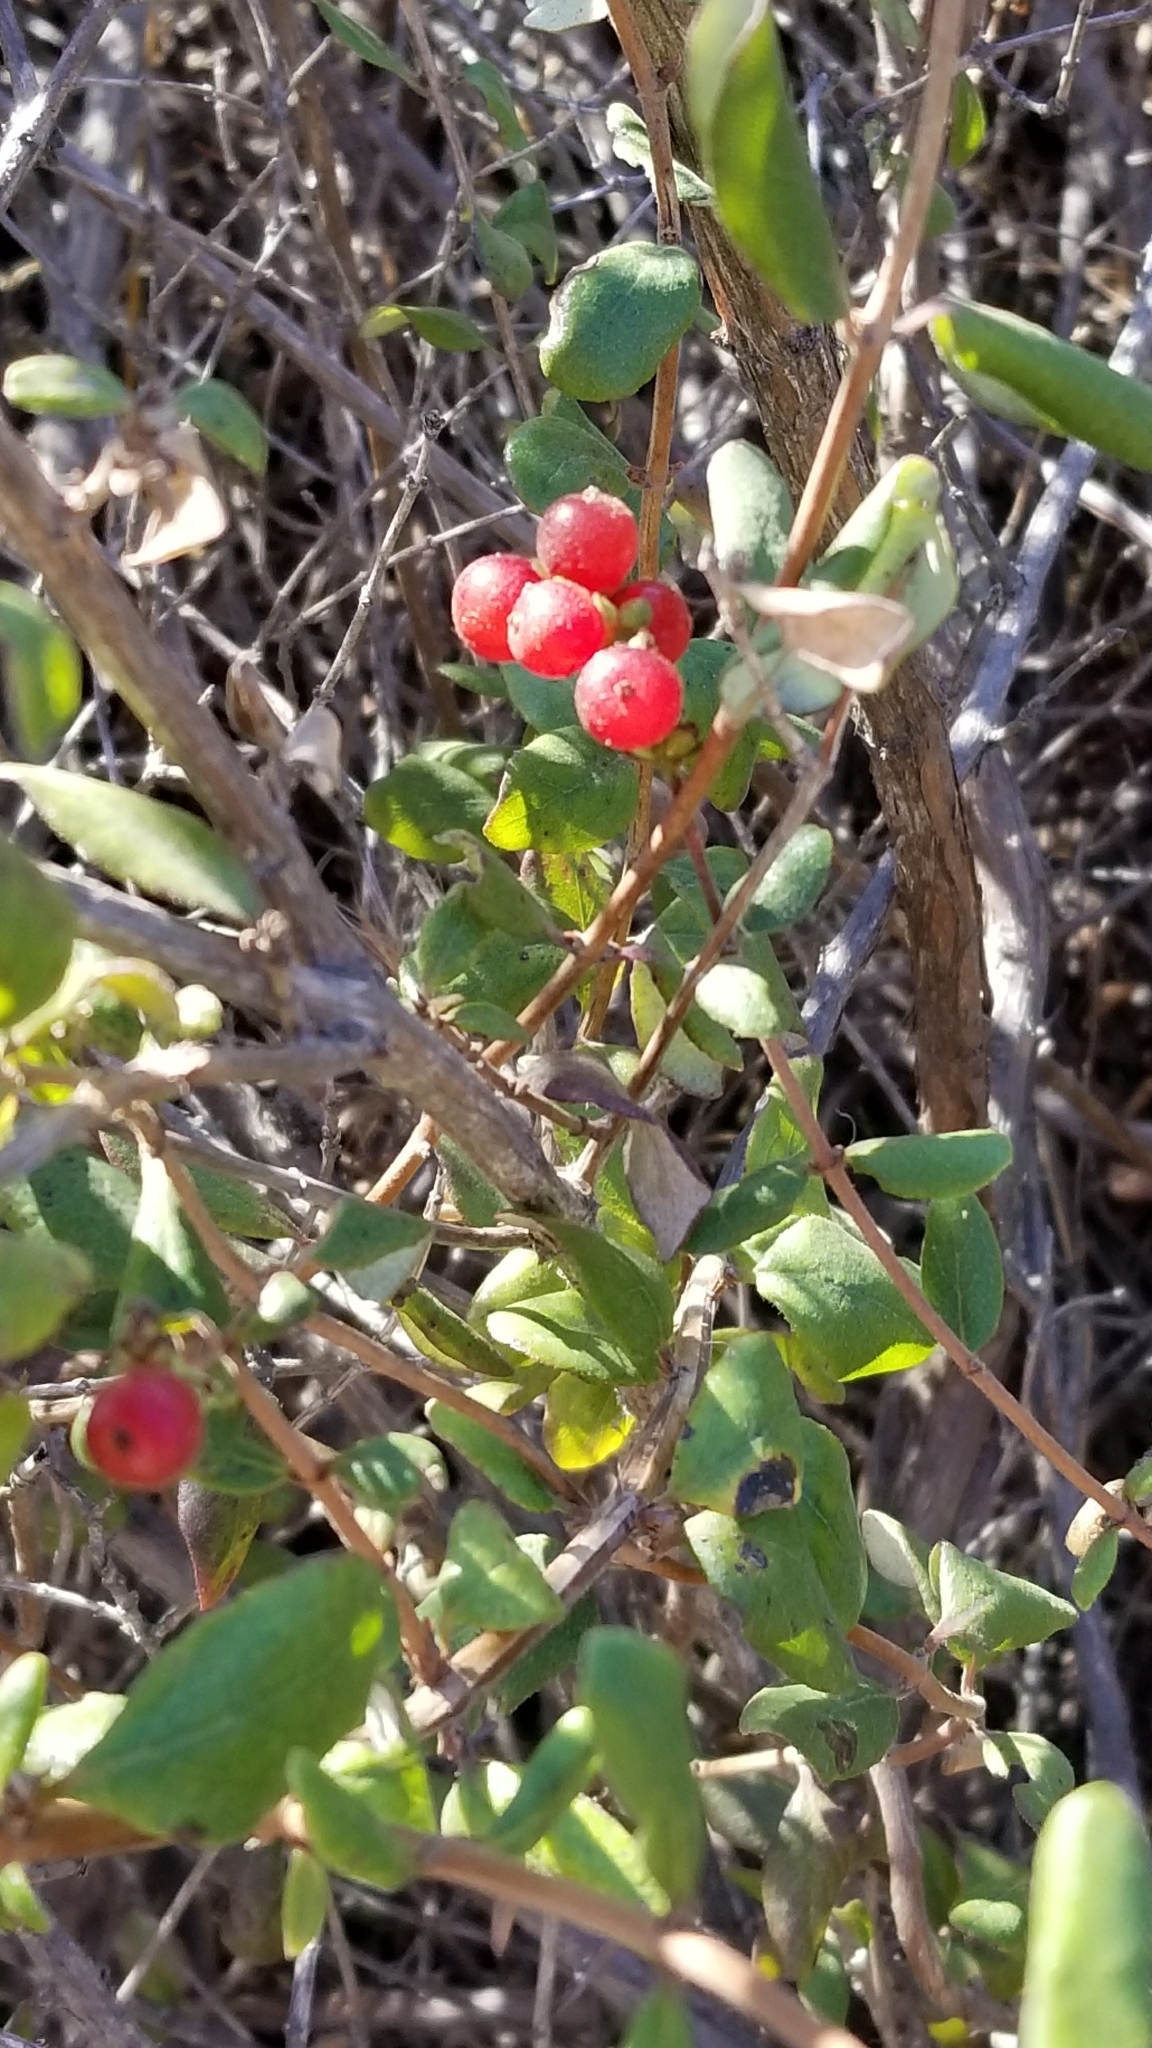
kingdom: Plantae
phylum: Tracheophyta
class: Magnoliopsida
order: Dipsacales
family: Caprifoliaceae
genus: Lonicera
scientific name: Lonicera subspicata
